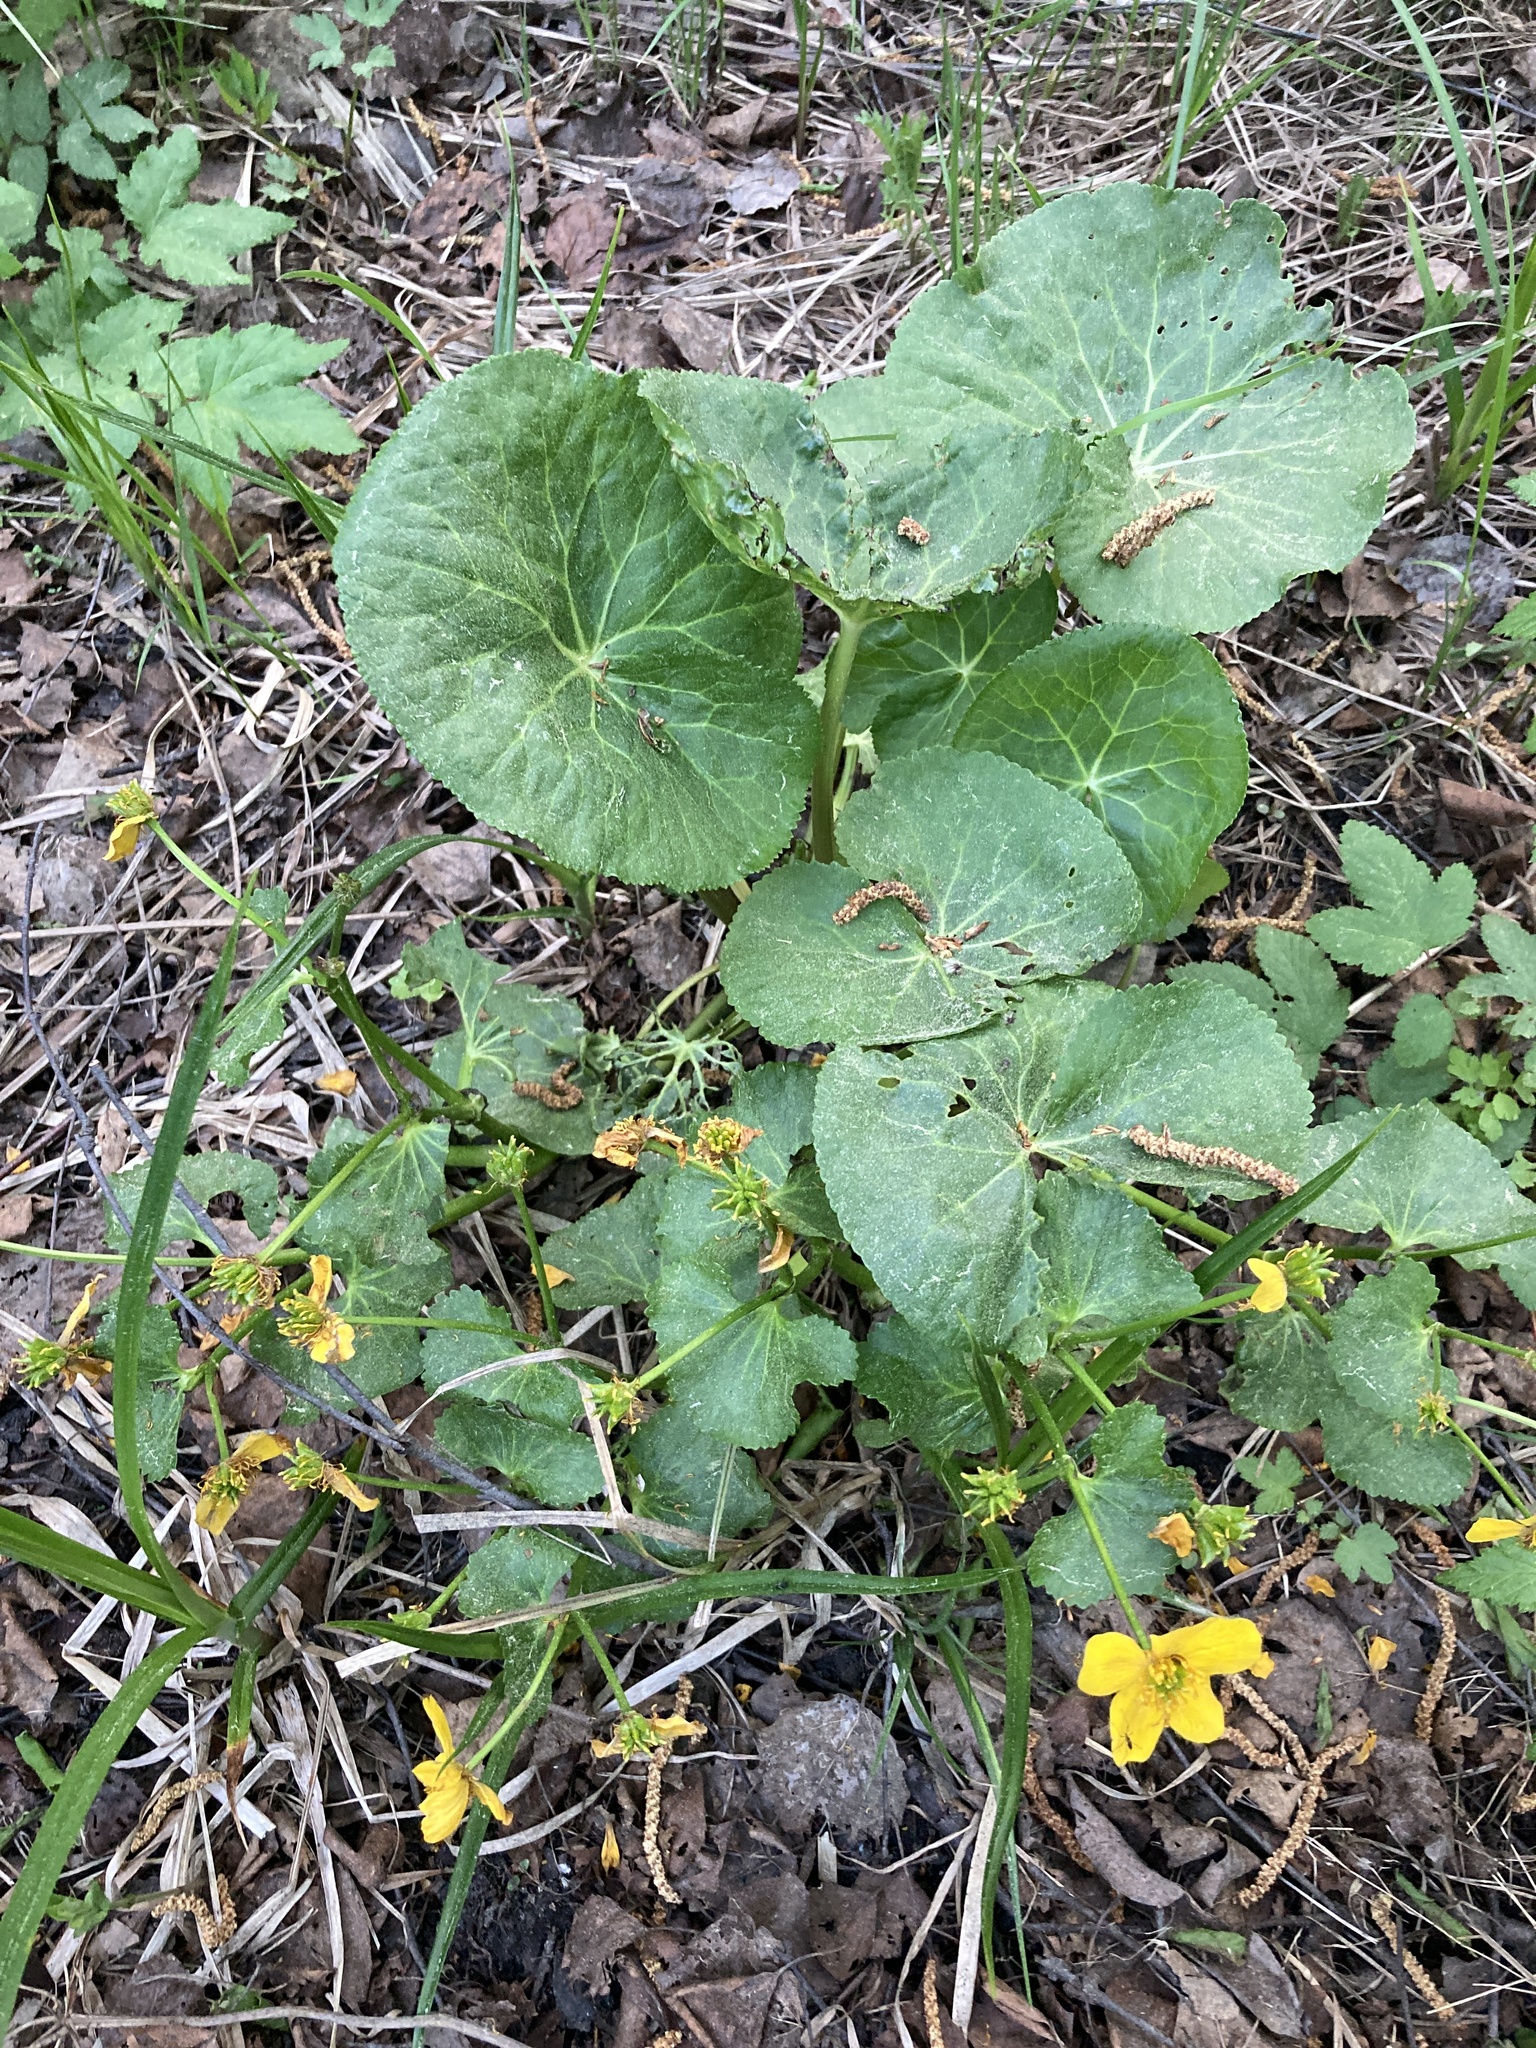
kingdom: Plantae
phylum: Tracheophyta
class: Magnoliopsida
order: Ranunculales
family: Ranunculaceae
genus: Caltha
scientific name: Caltha palustris
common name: Marsh marigold
